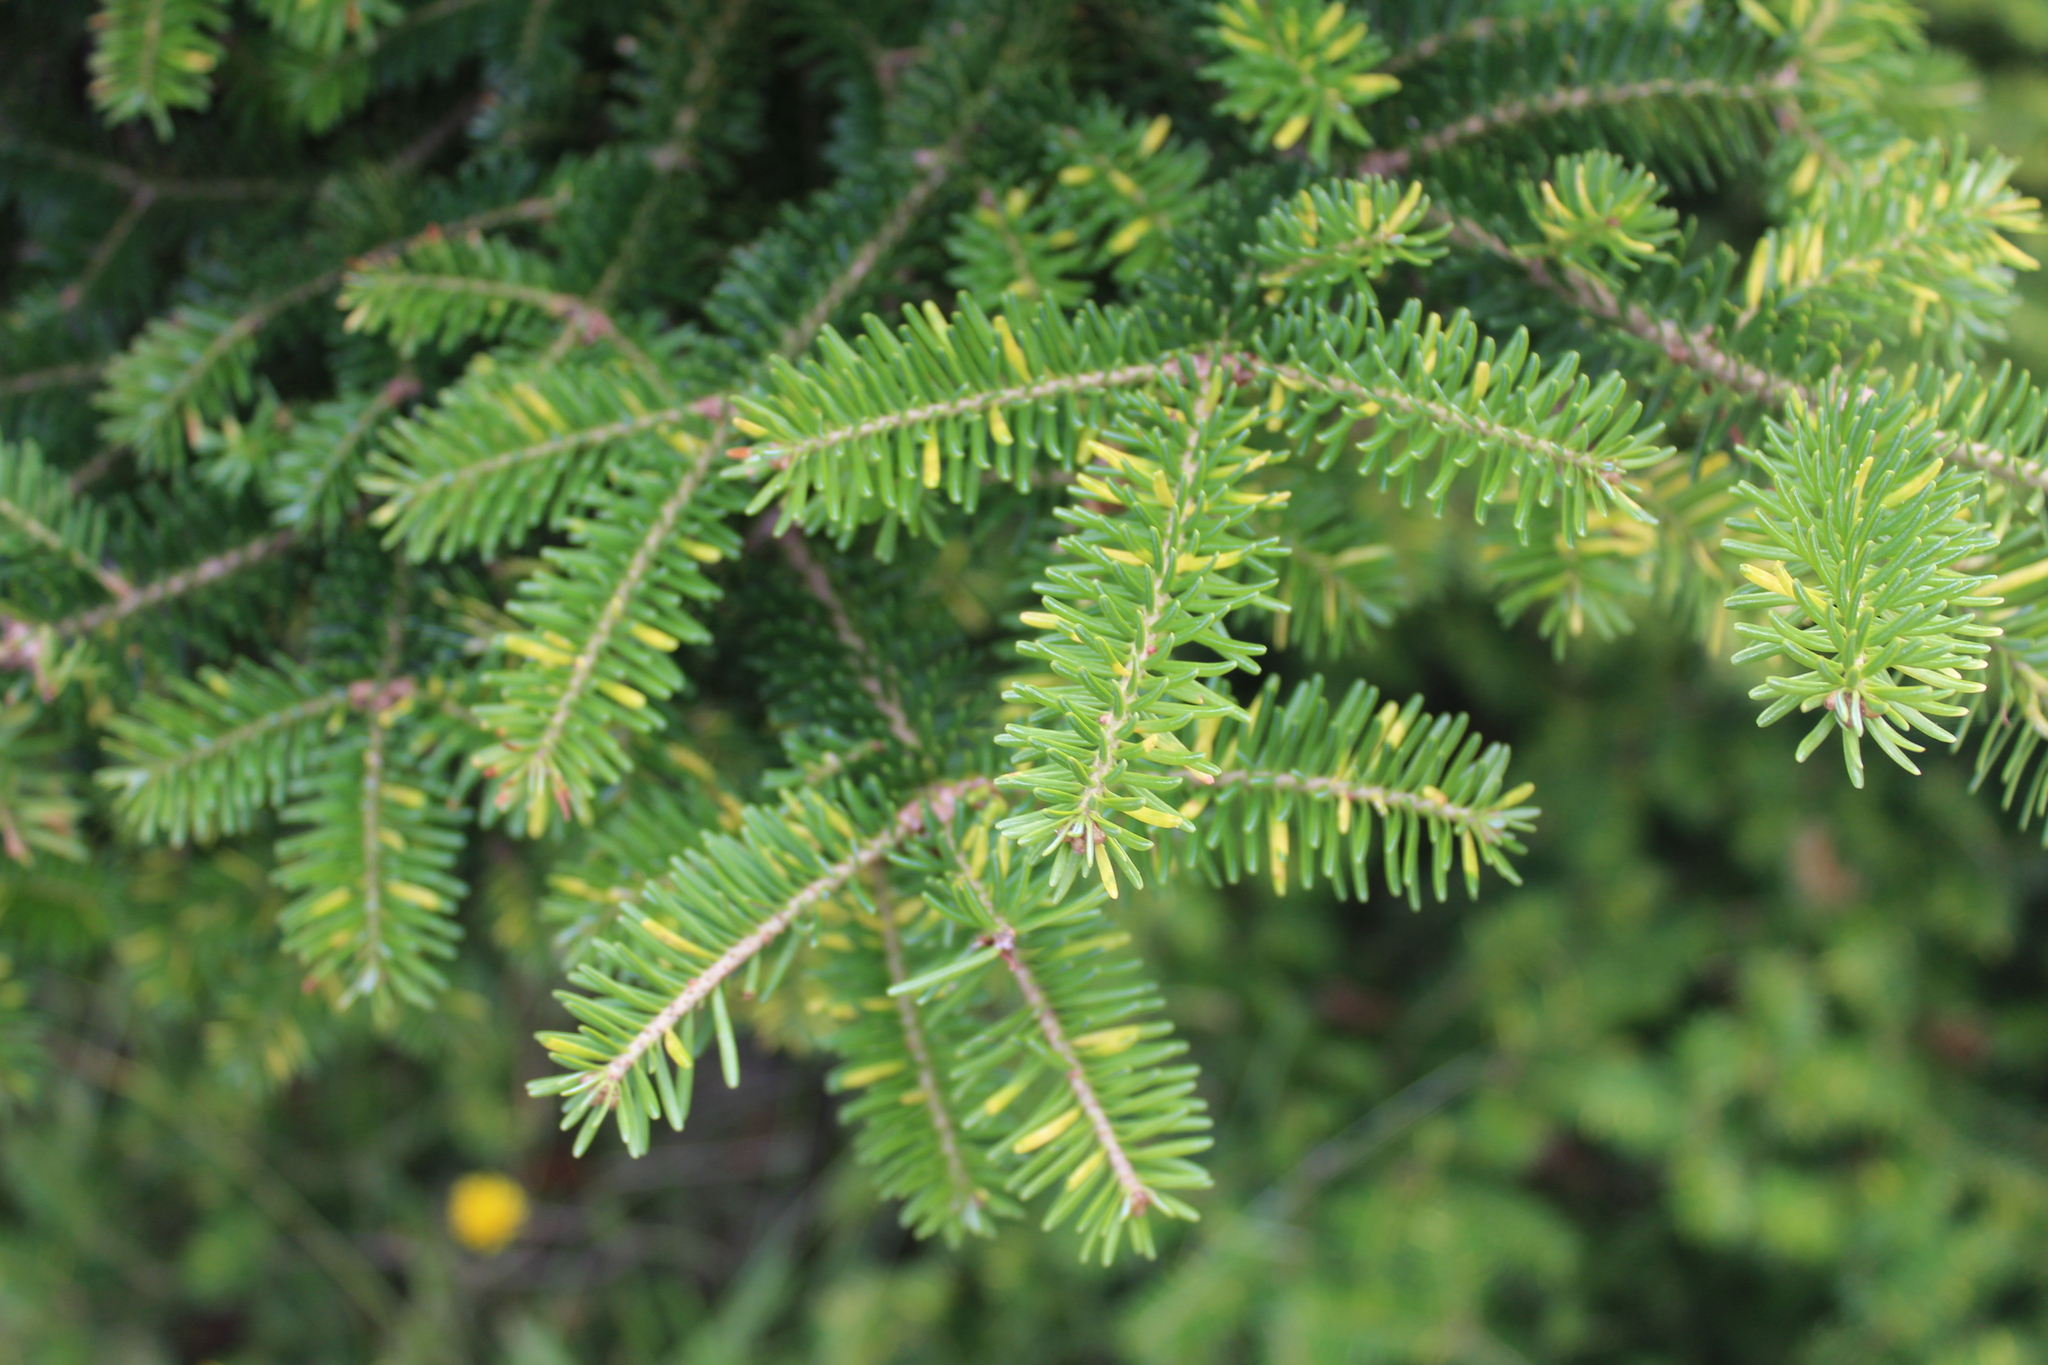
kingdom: Plantae
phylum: Tracheophyta
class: Pinopsida
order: Pinales
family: Pinaceae
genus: Abies
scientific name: Abies balsamea
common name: Balsam fir
